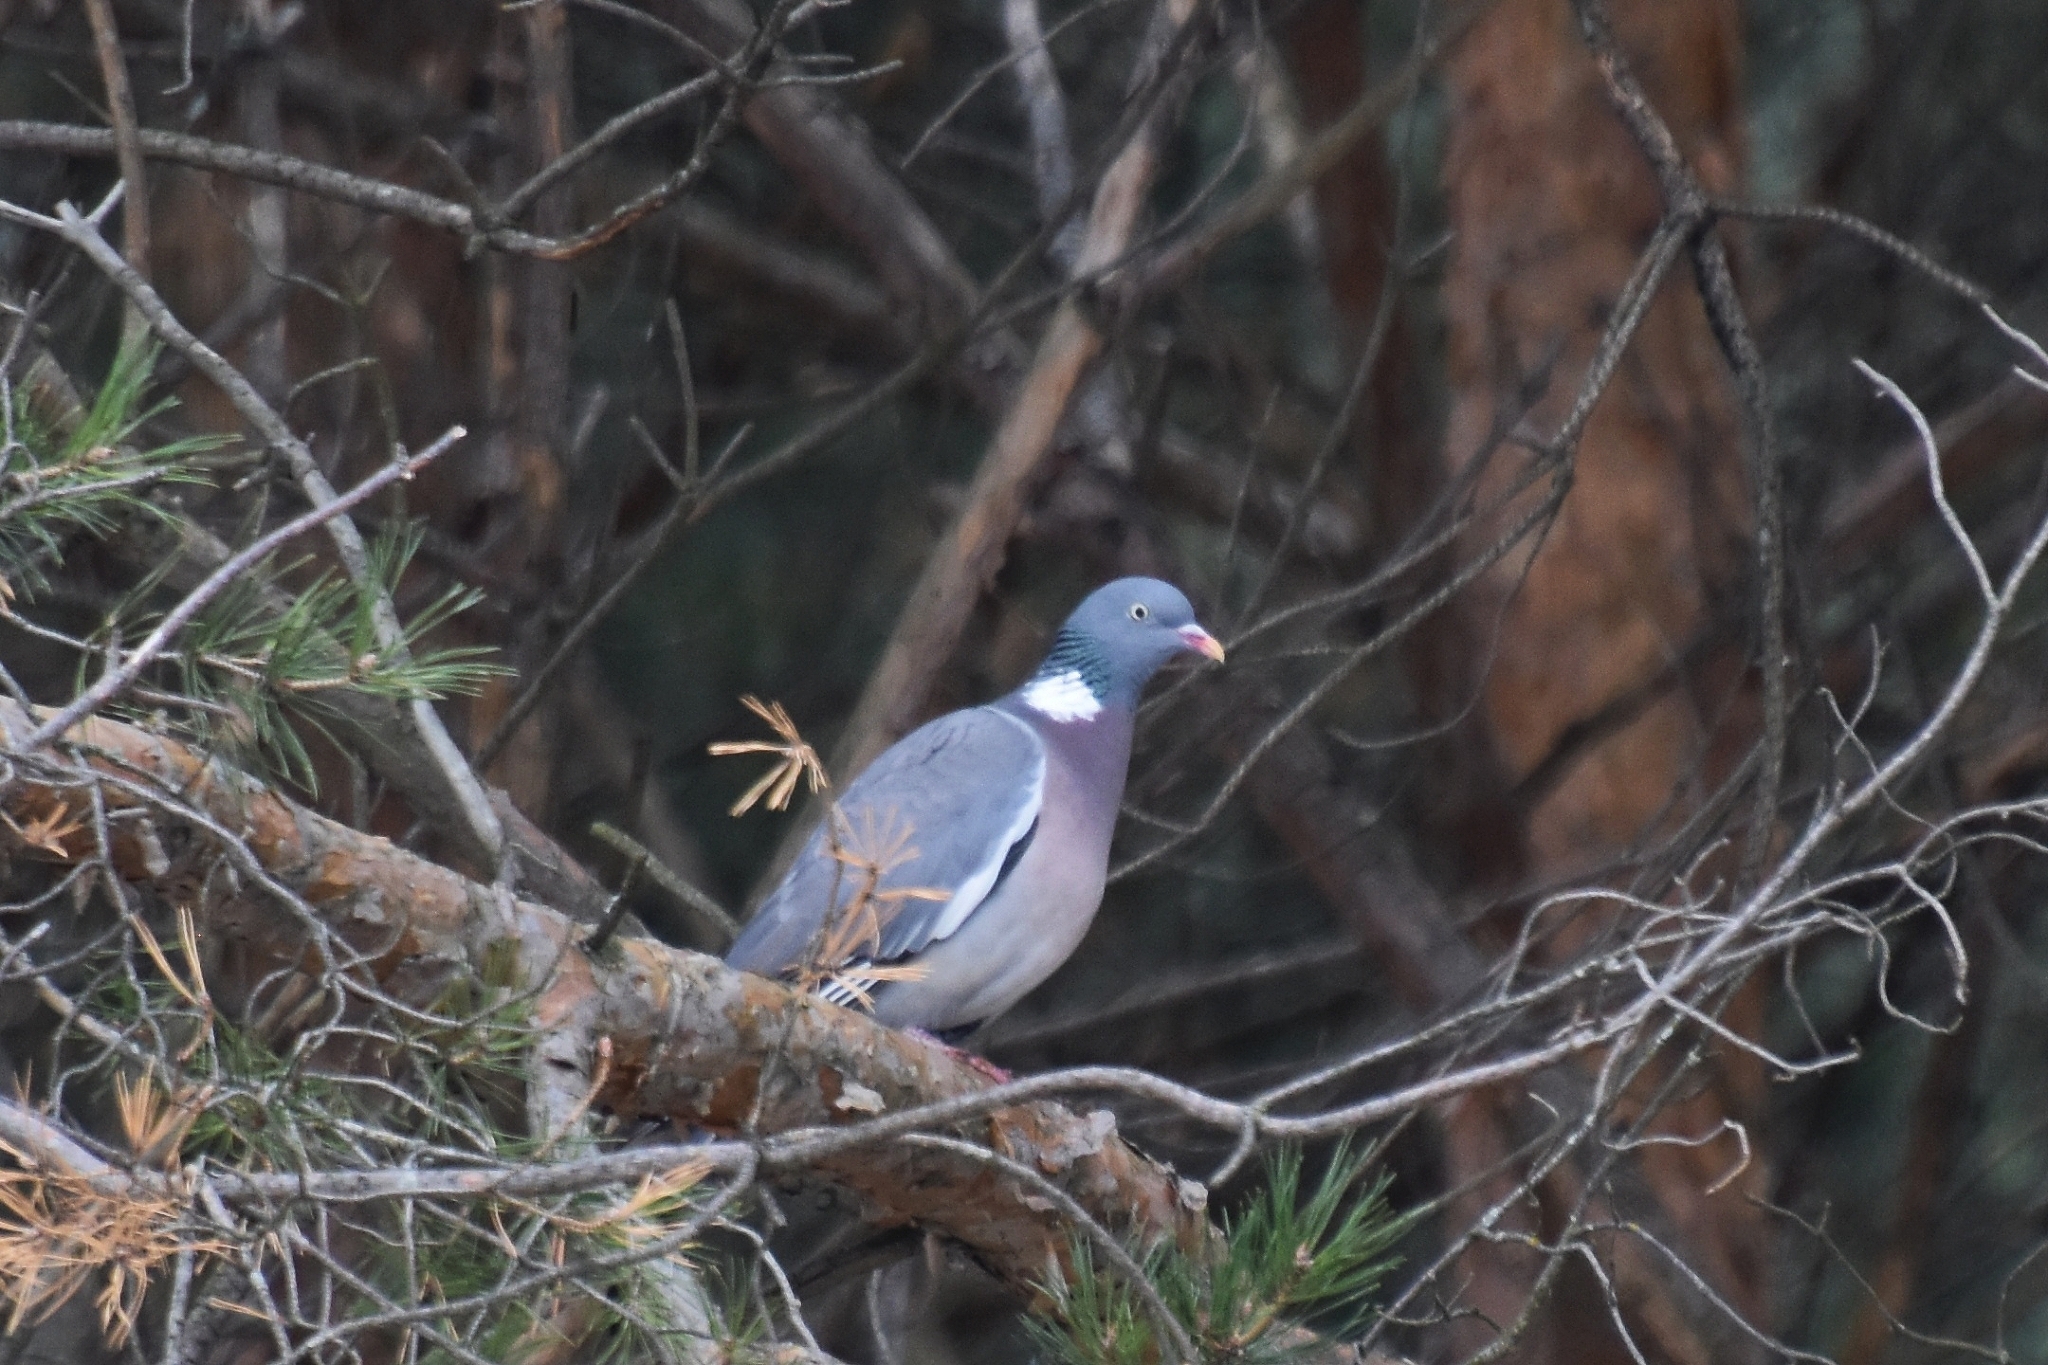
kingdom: Animalia
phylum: Chordata
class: Aves
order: Columbiformes
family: Columbidae
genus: Columba
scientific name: Columba palumbus
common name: Common wood pigeon
